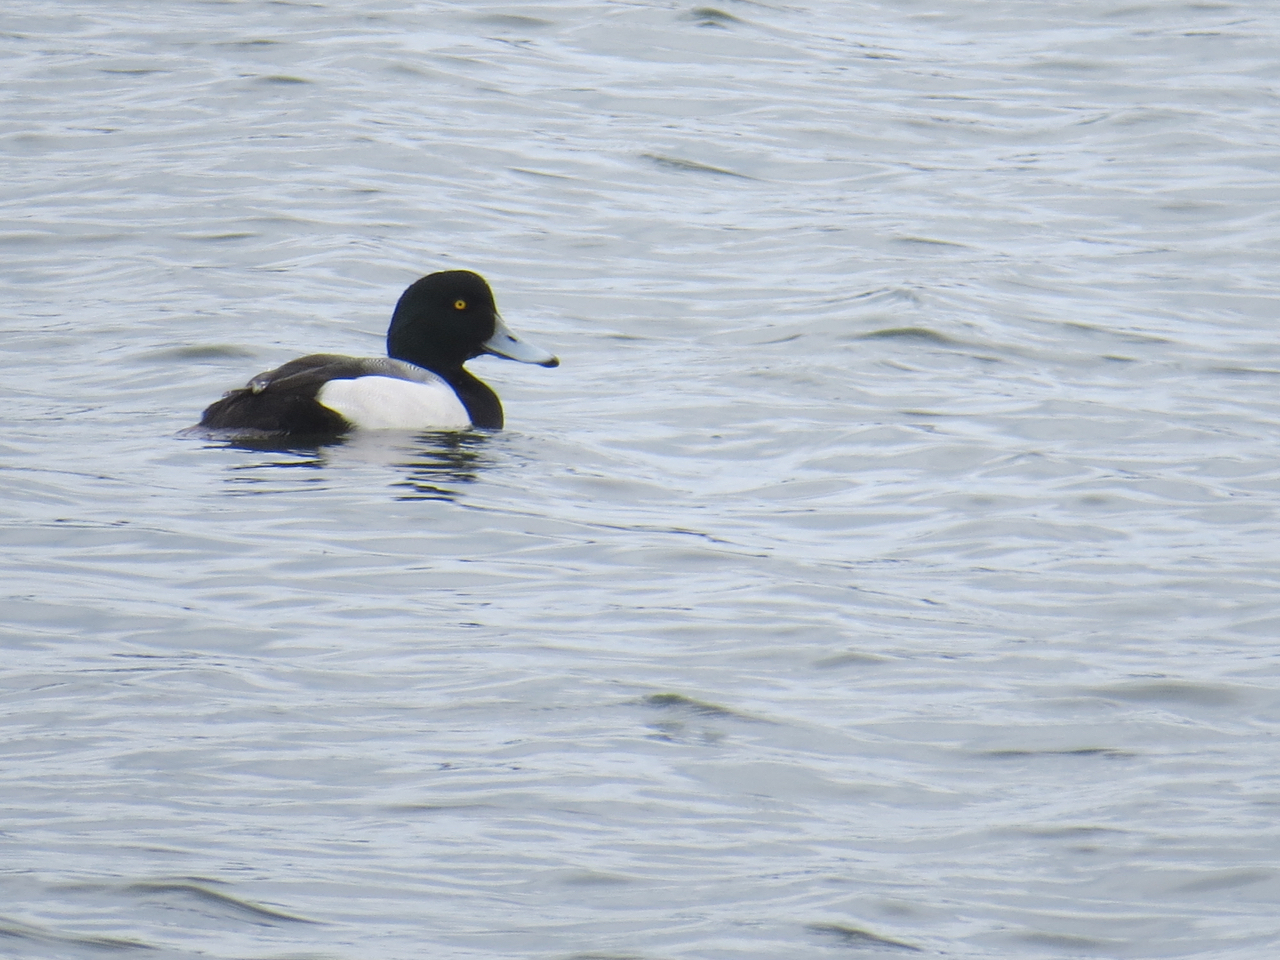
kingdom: Animalia
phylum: Chordata
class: Aves
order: Anseriformes
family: Anatidae
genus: Aythya
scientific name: Aythya marila
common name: Greater scaup
